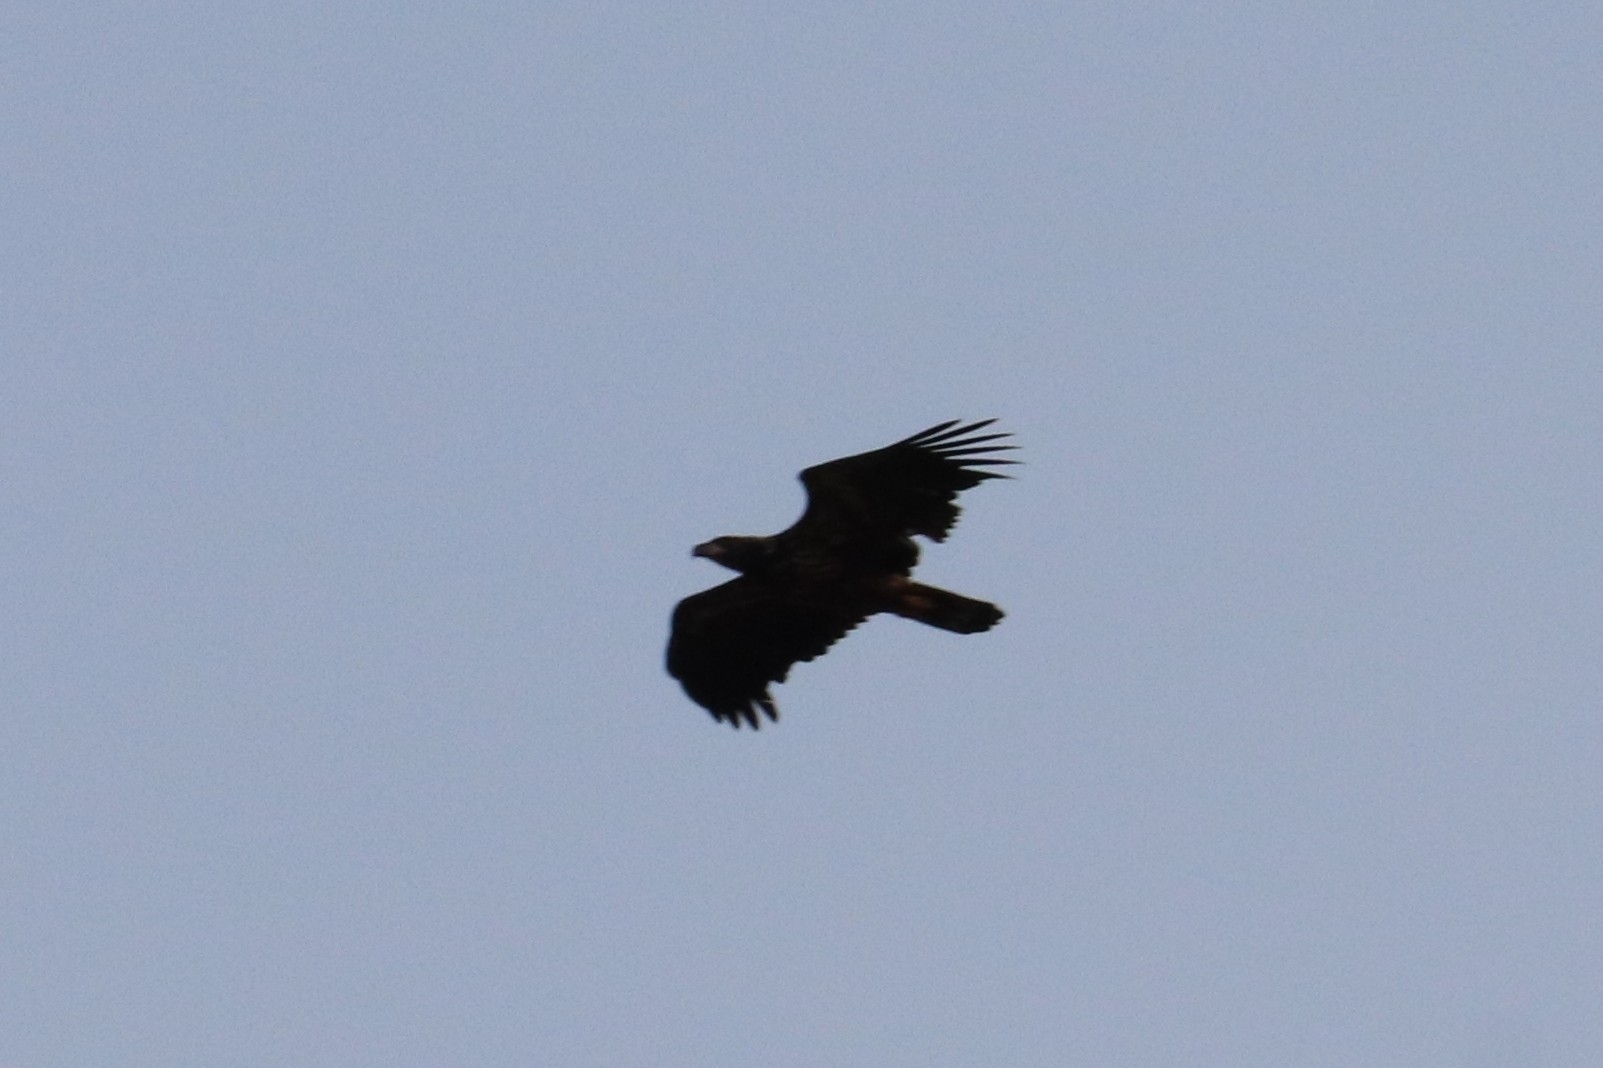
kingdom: Animalia
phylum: Chordata
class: Aves
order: Accipitriformes
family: Accipitridae
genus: Aquila
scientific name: Aquila chrysaetos
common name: Golden eagle
